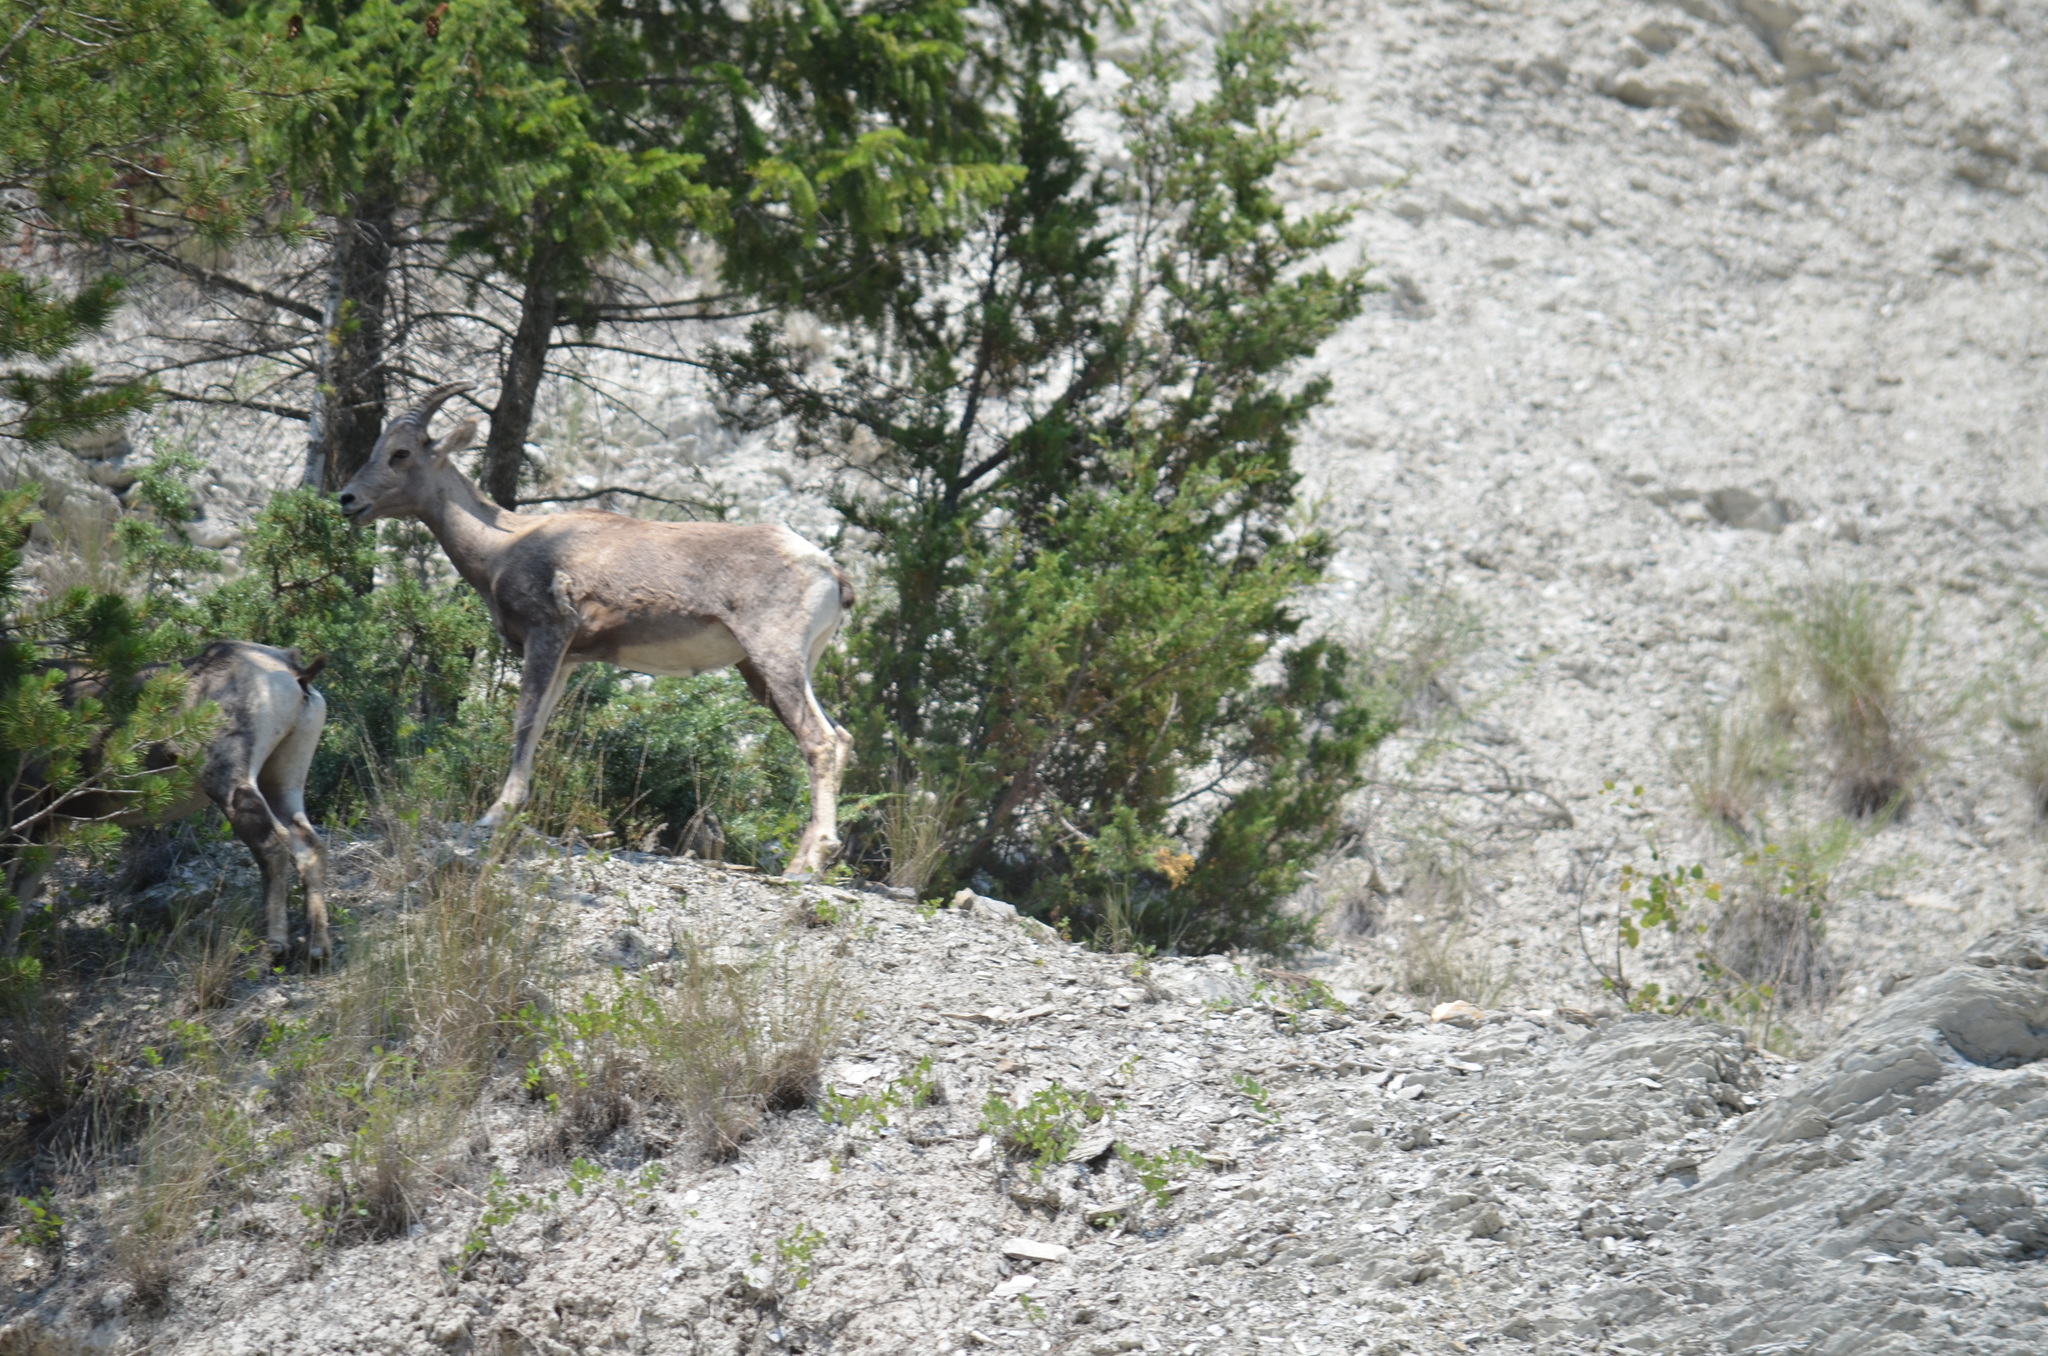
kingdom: Animalia
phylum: Chordata
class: Mammalia
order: Artiodactyla
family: Bovidae
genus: Ovis
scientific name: Ovis canadensis
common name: Bighorn sheep
